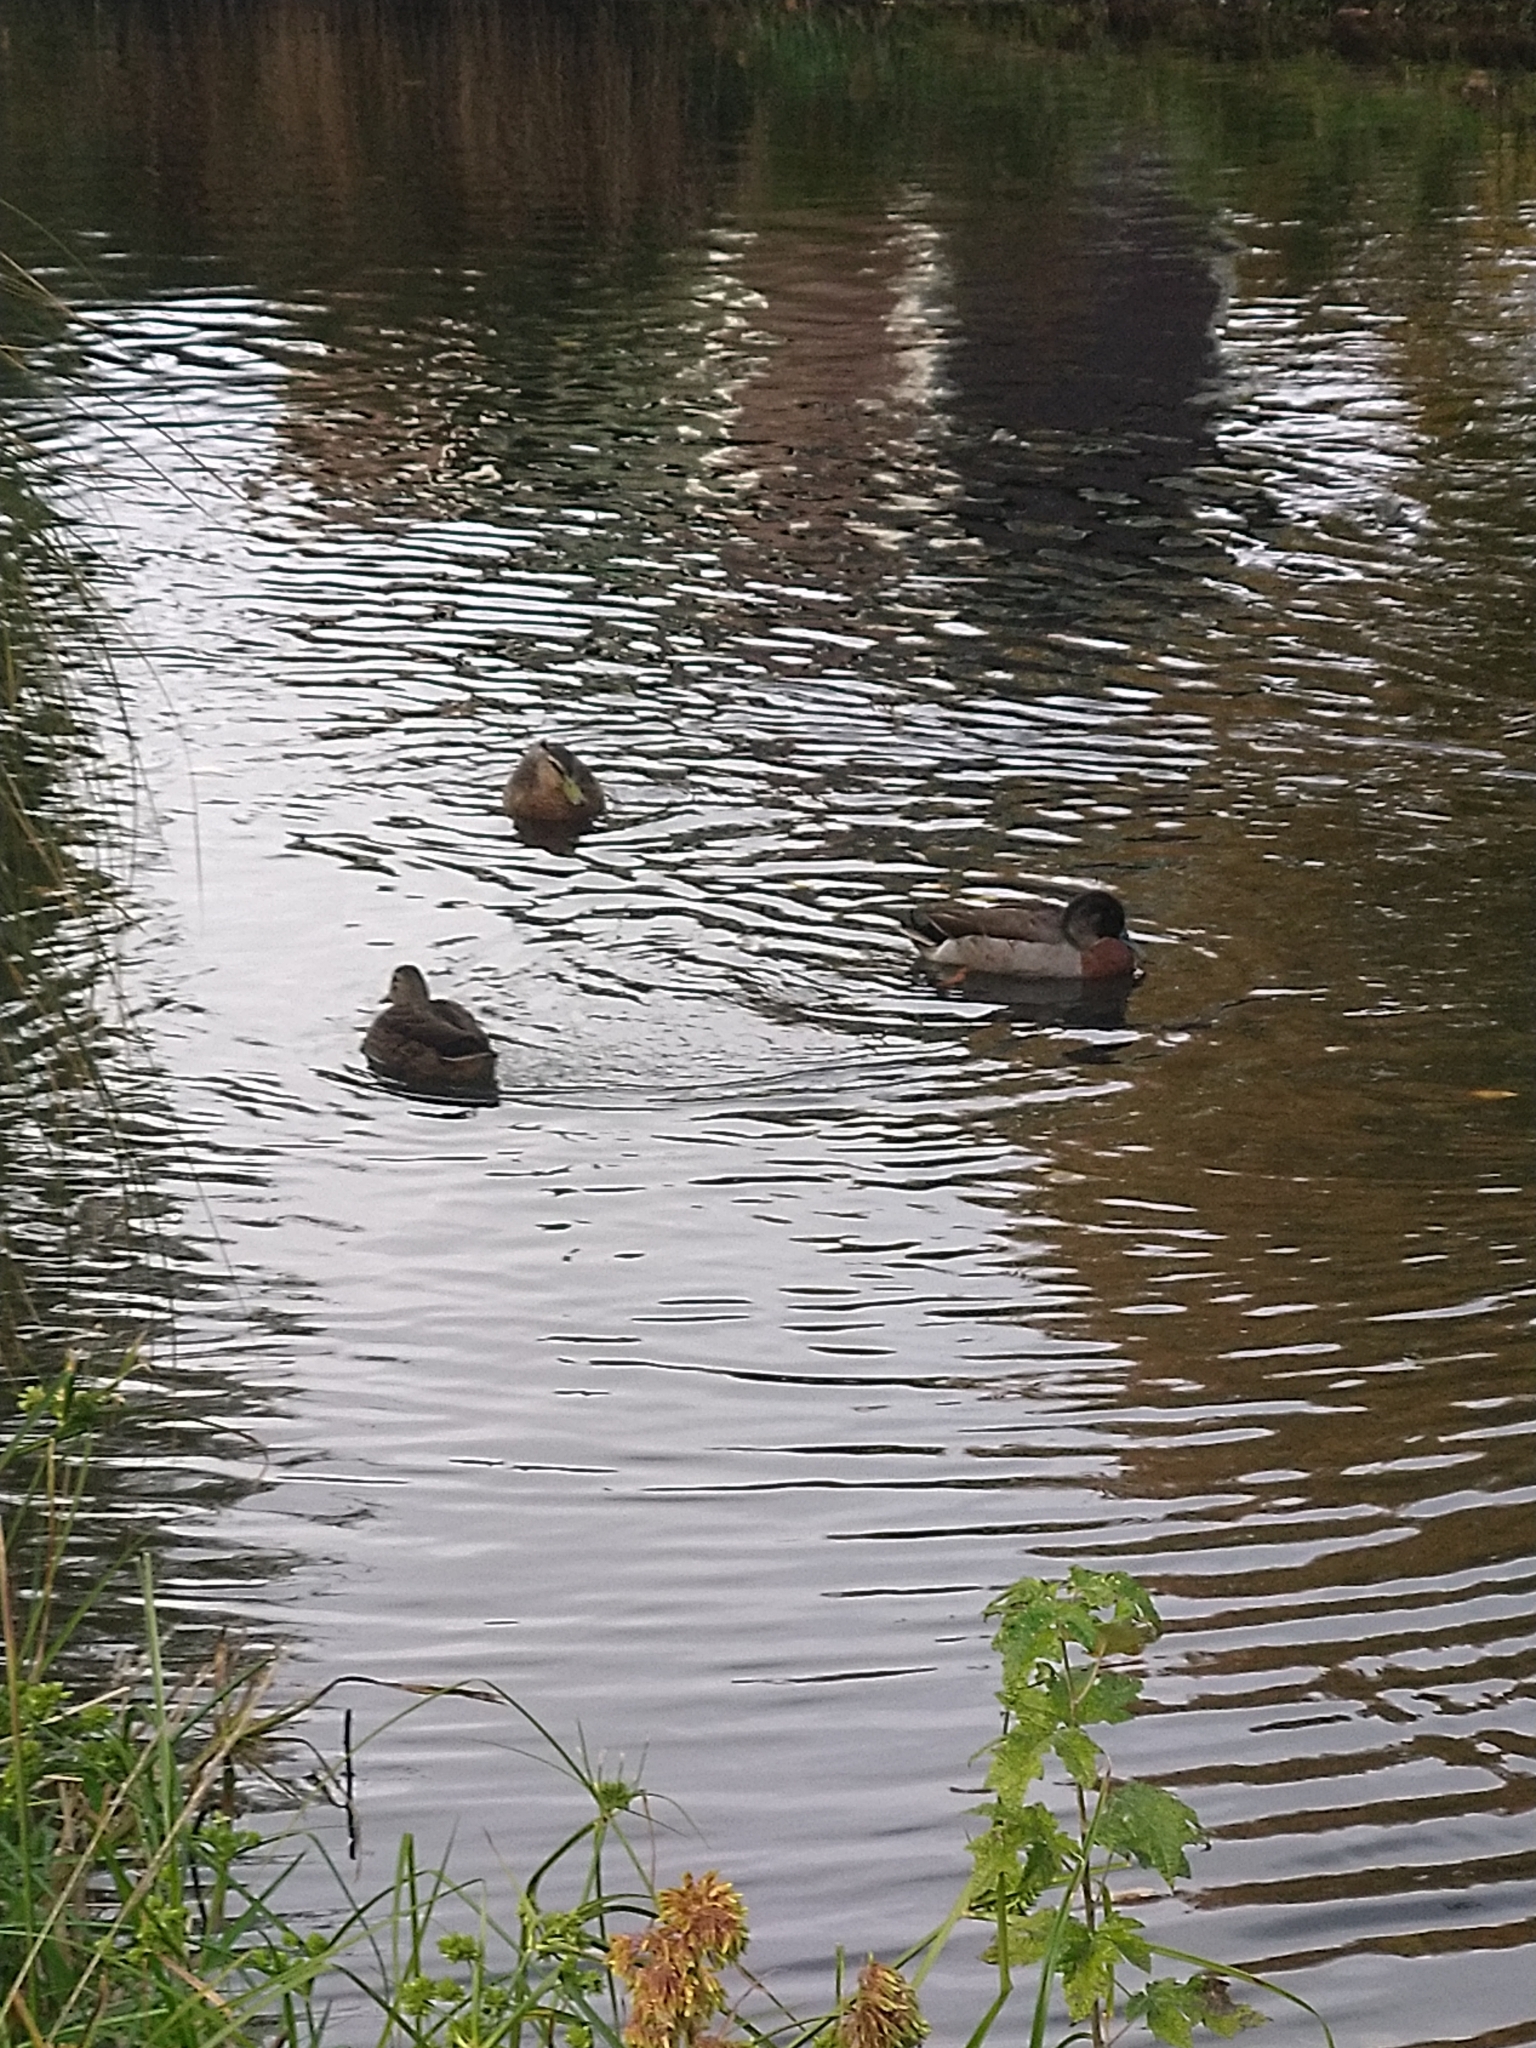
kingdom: Animalia
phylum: Chordata
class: Aves
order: Anseriformes
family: Anatidae
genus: Anas
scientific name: Anas platyrhynchos
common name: Mallard
